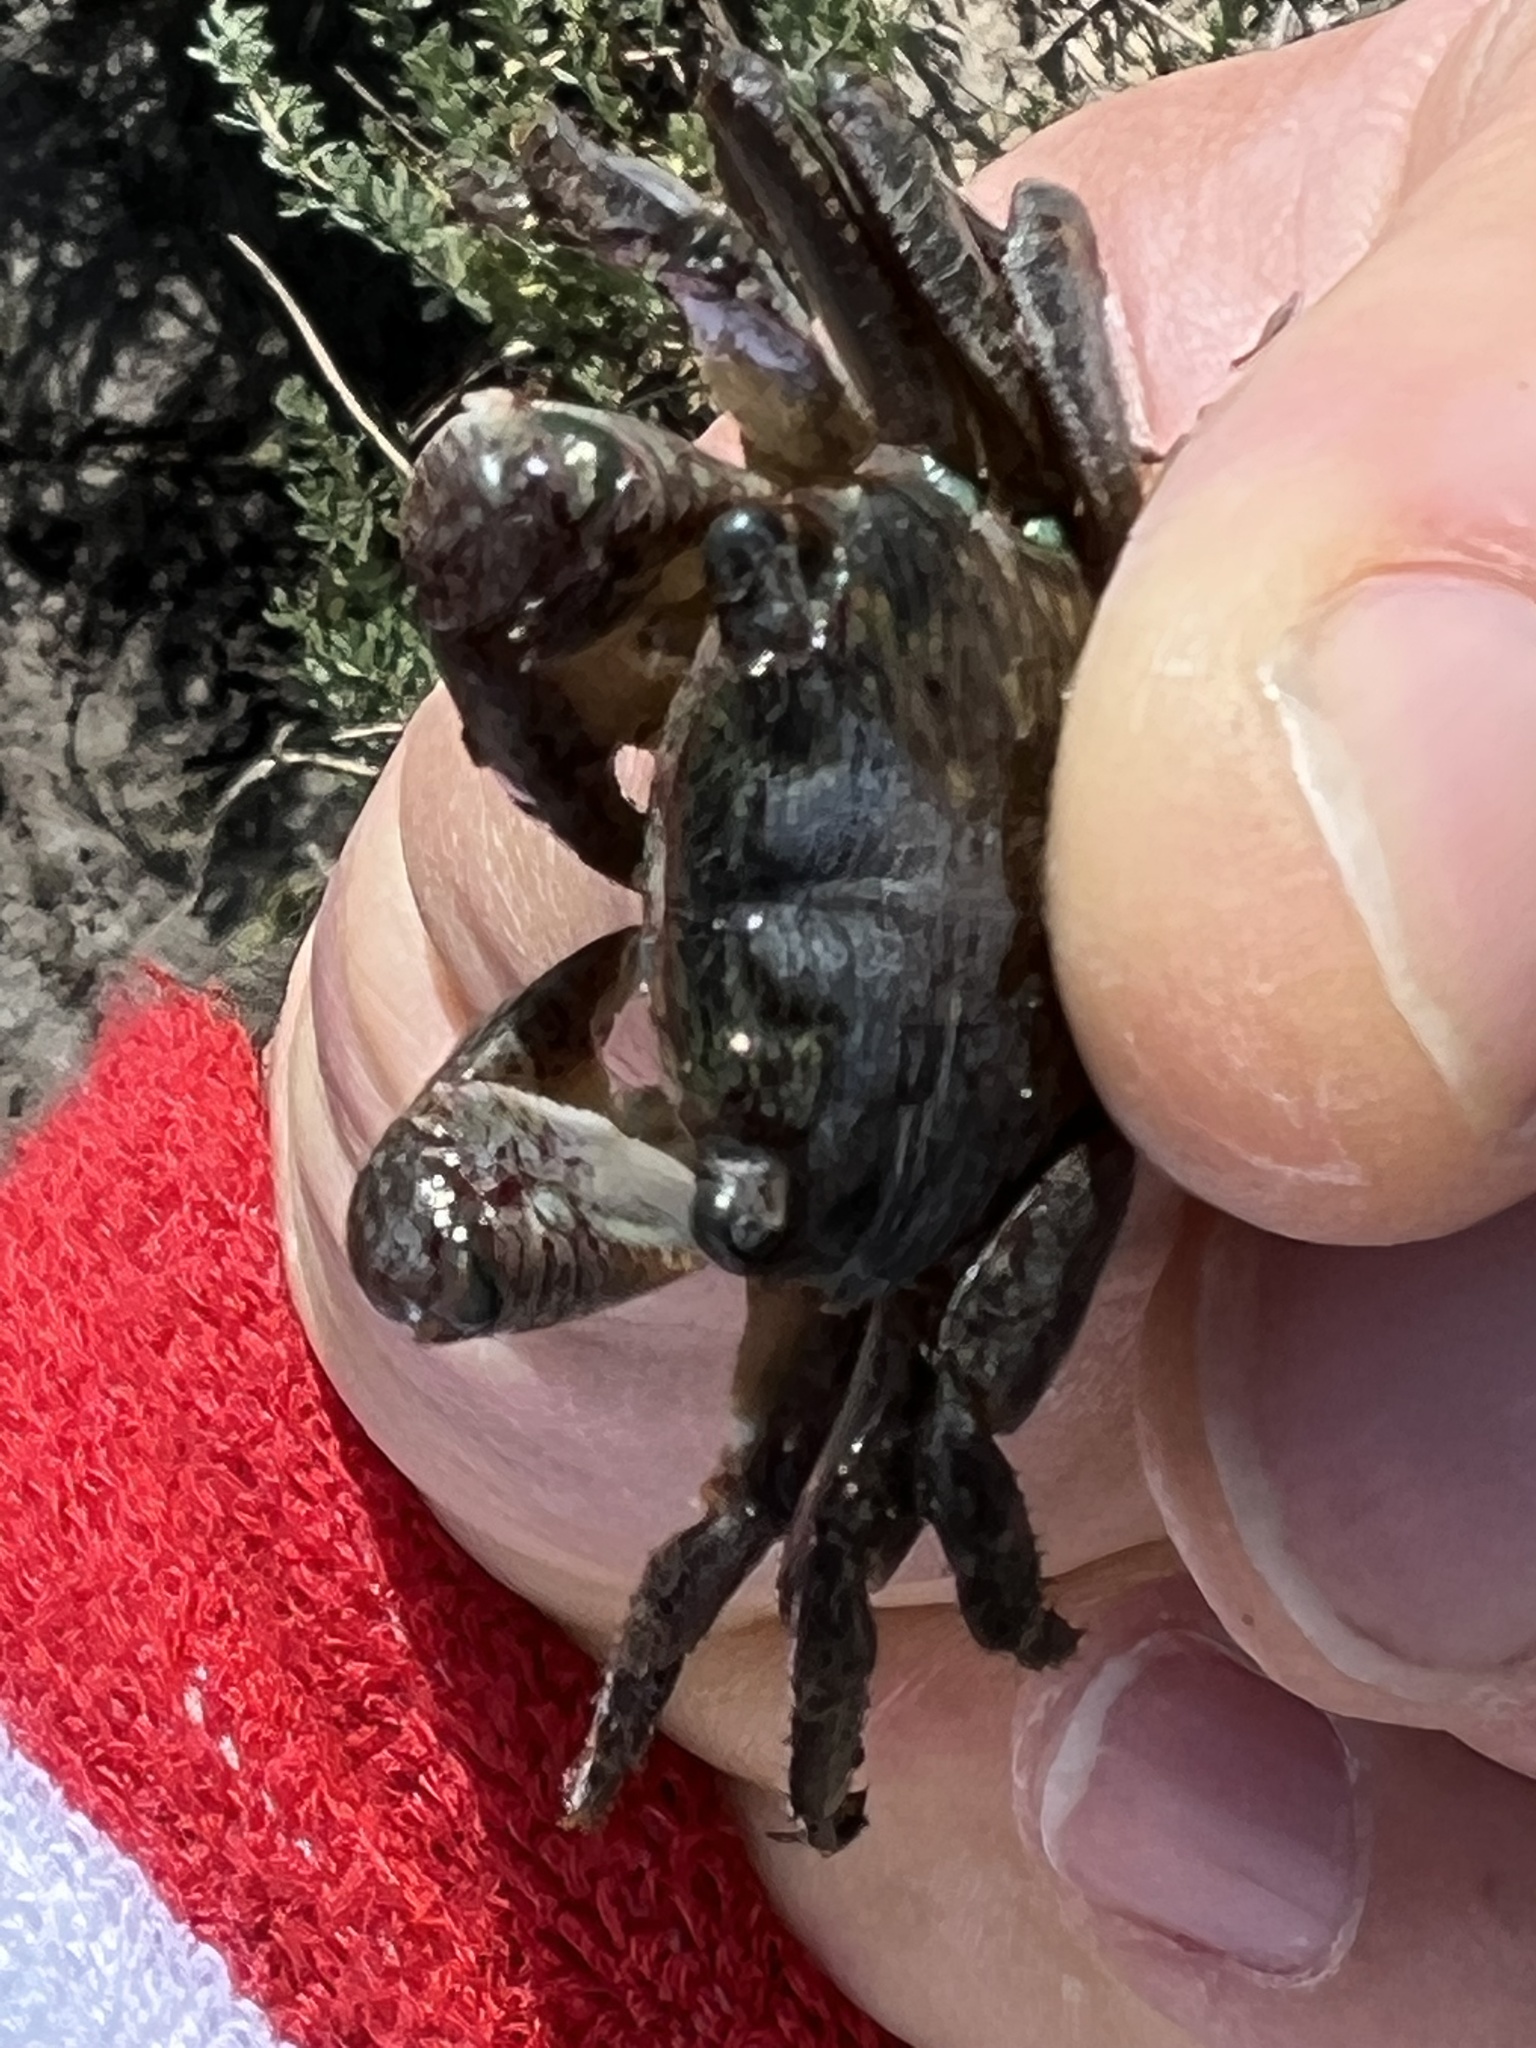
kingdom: Animalia
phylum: Arthropoda
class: Malacostraca
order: Decapoda
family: Grapsidae
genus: Pachygrapsus
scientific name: Pachygrapsus crassipes
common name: Striped shore crab
